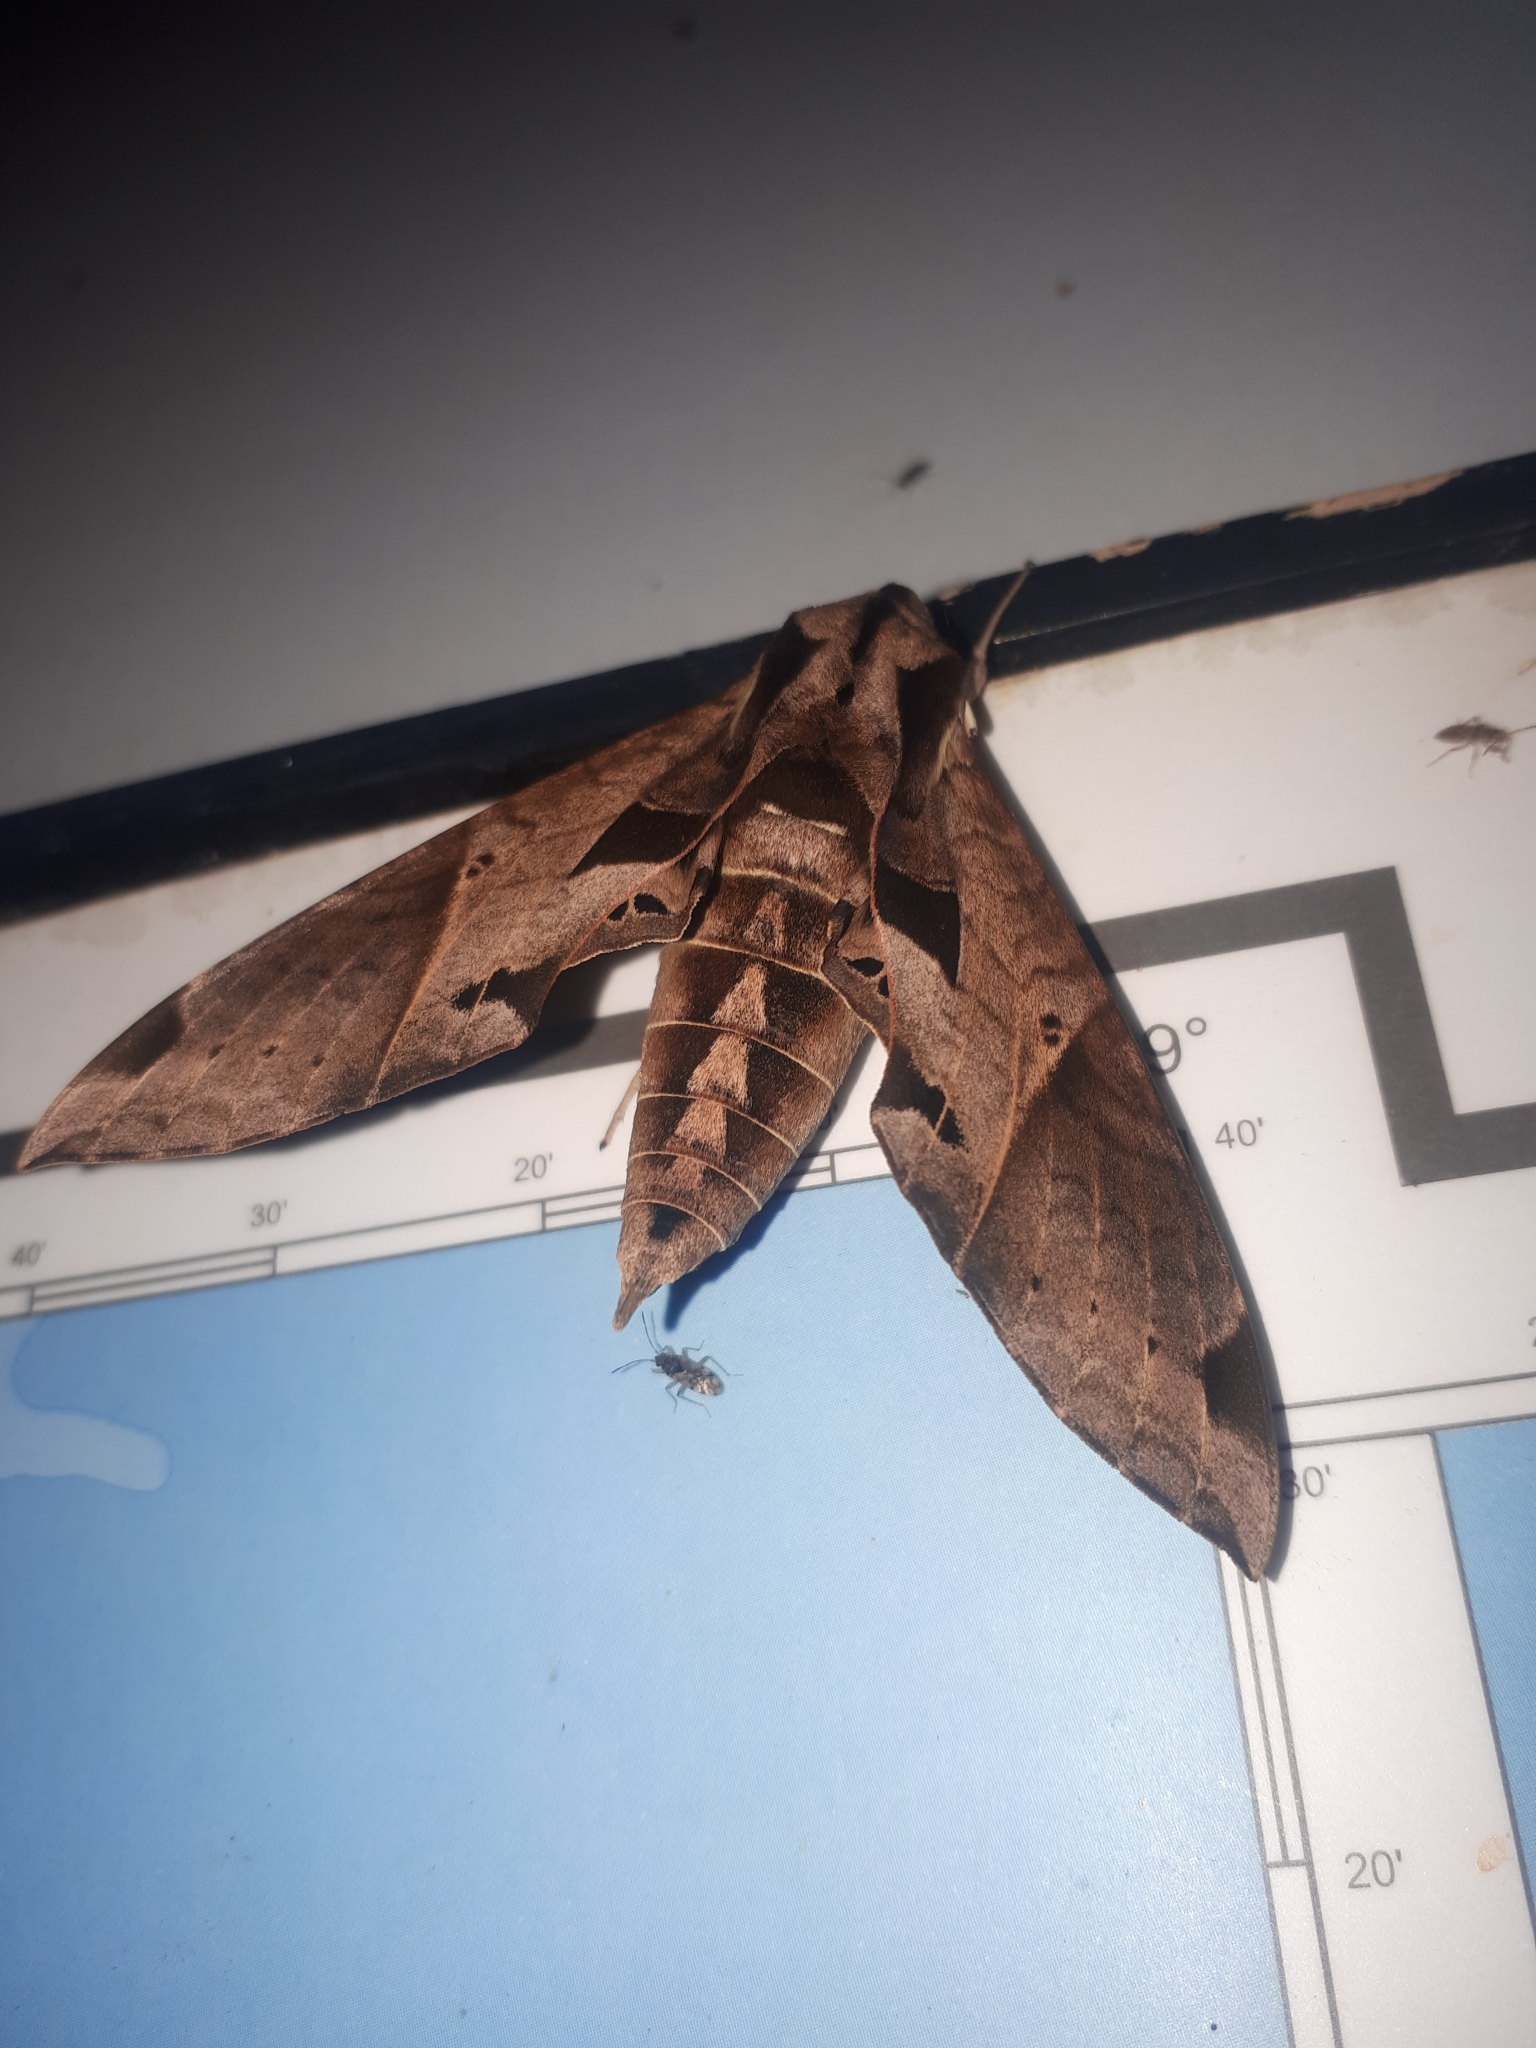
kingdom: Animalia
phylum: Arthropoda
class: Insecta
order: Lepidoptera
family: Sphingidae
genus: Eumorpha
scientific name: Eumorpha satellitia
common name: Satellite sphinx
